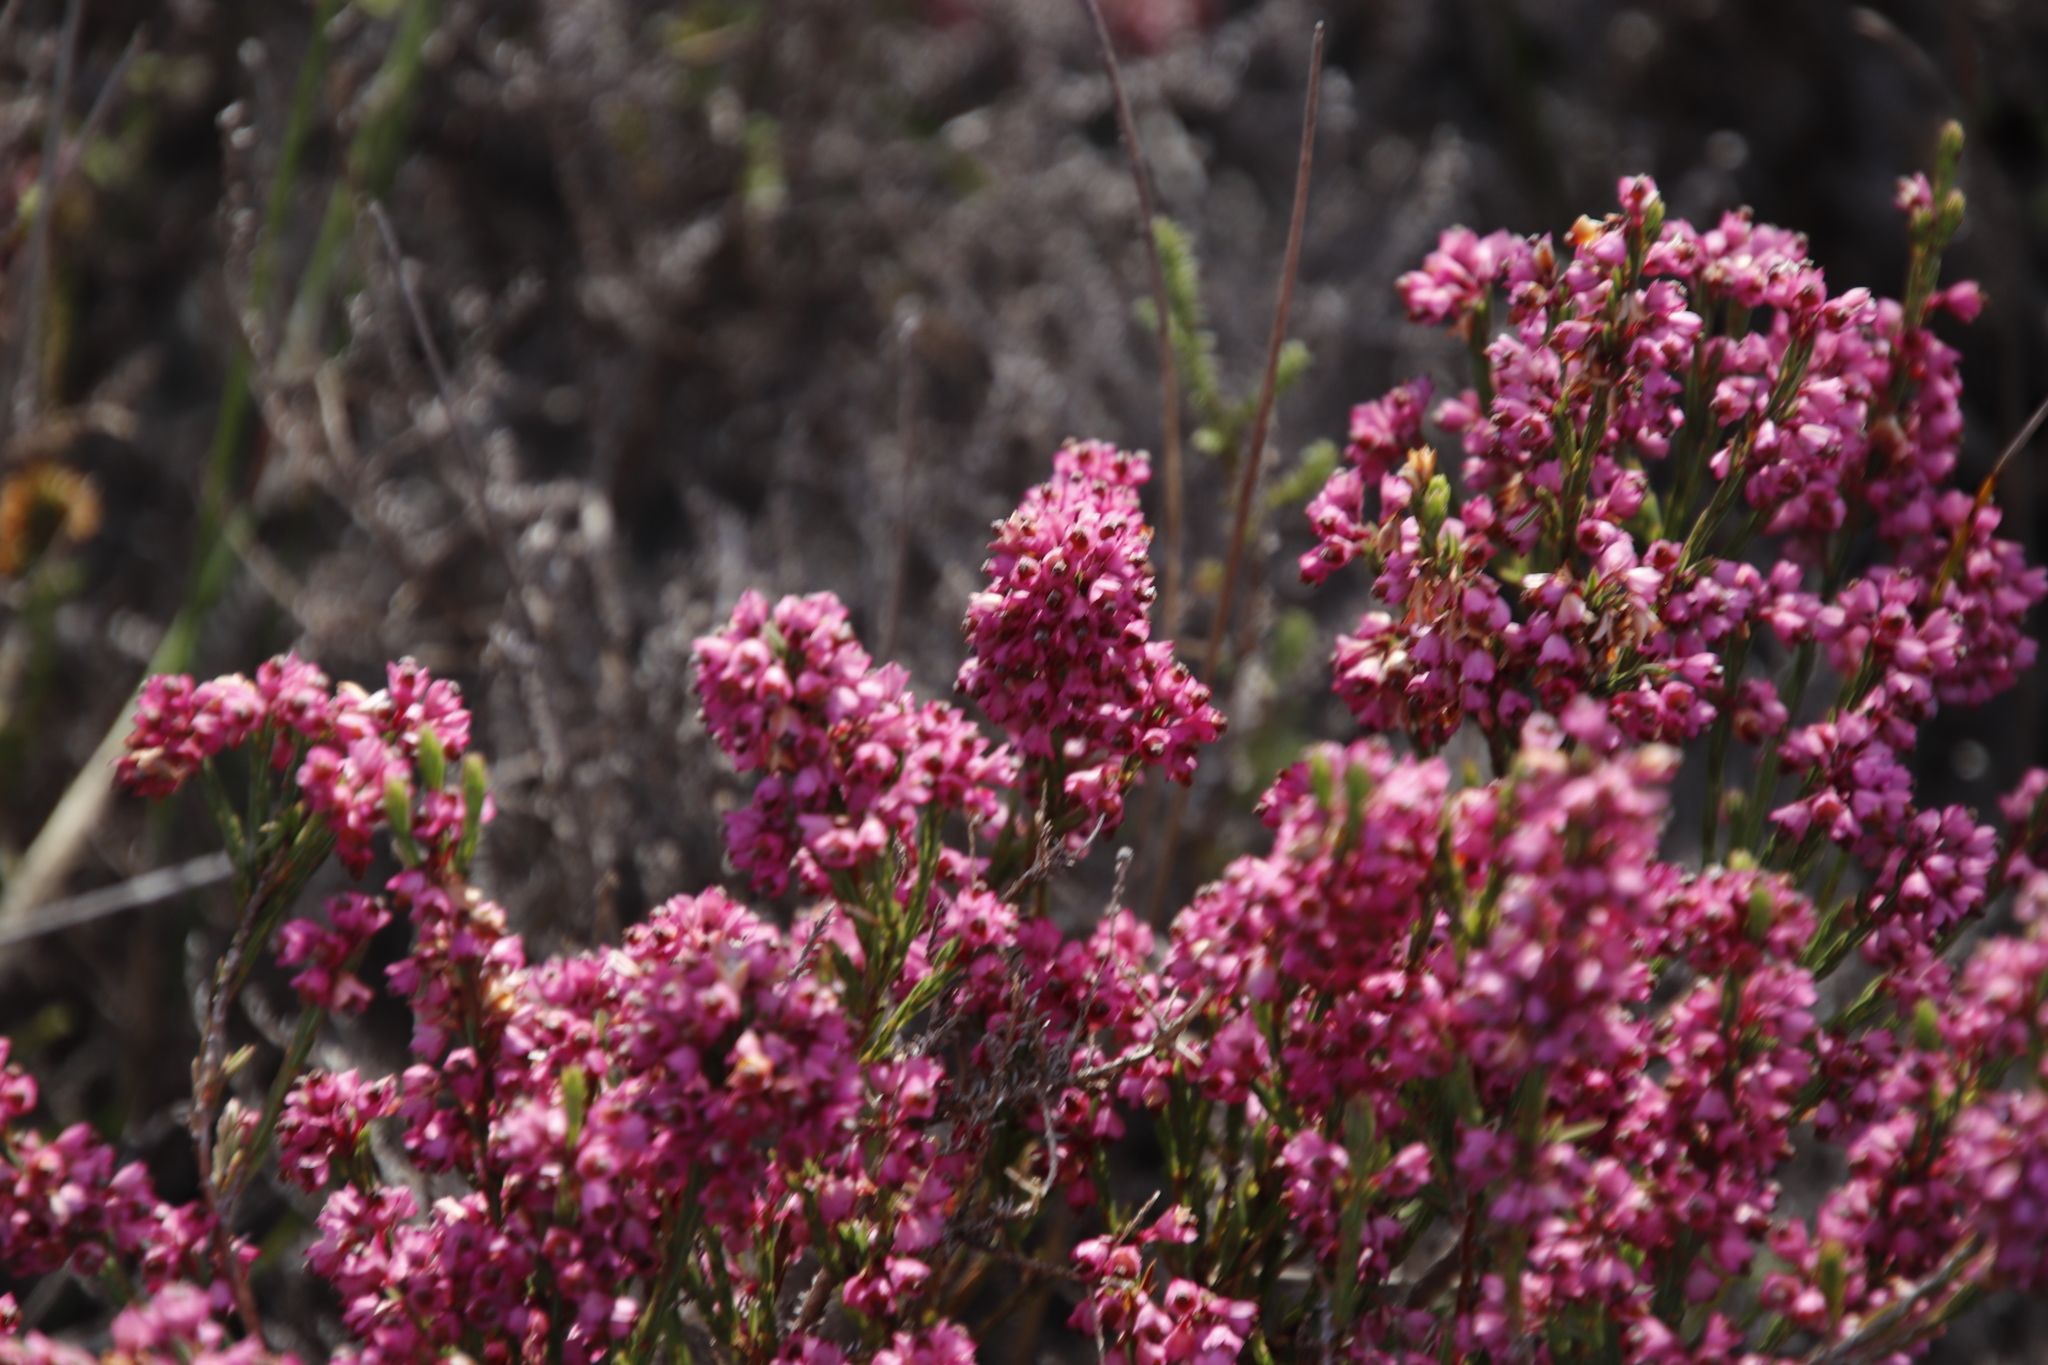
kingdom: Plantae
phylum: Tracheophyta
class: Magnoliopsida
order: Ericales
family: Ericaceae
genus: Erica
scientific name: Erica corifolia
